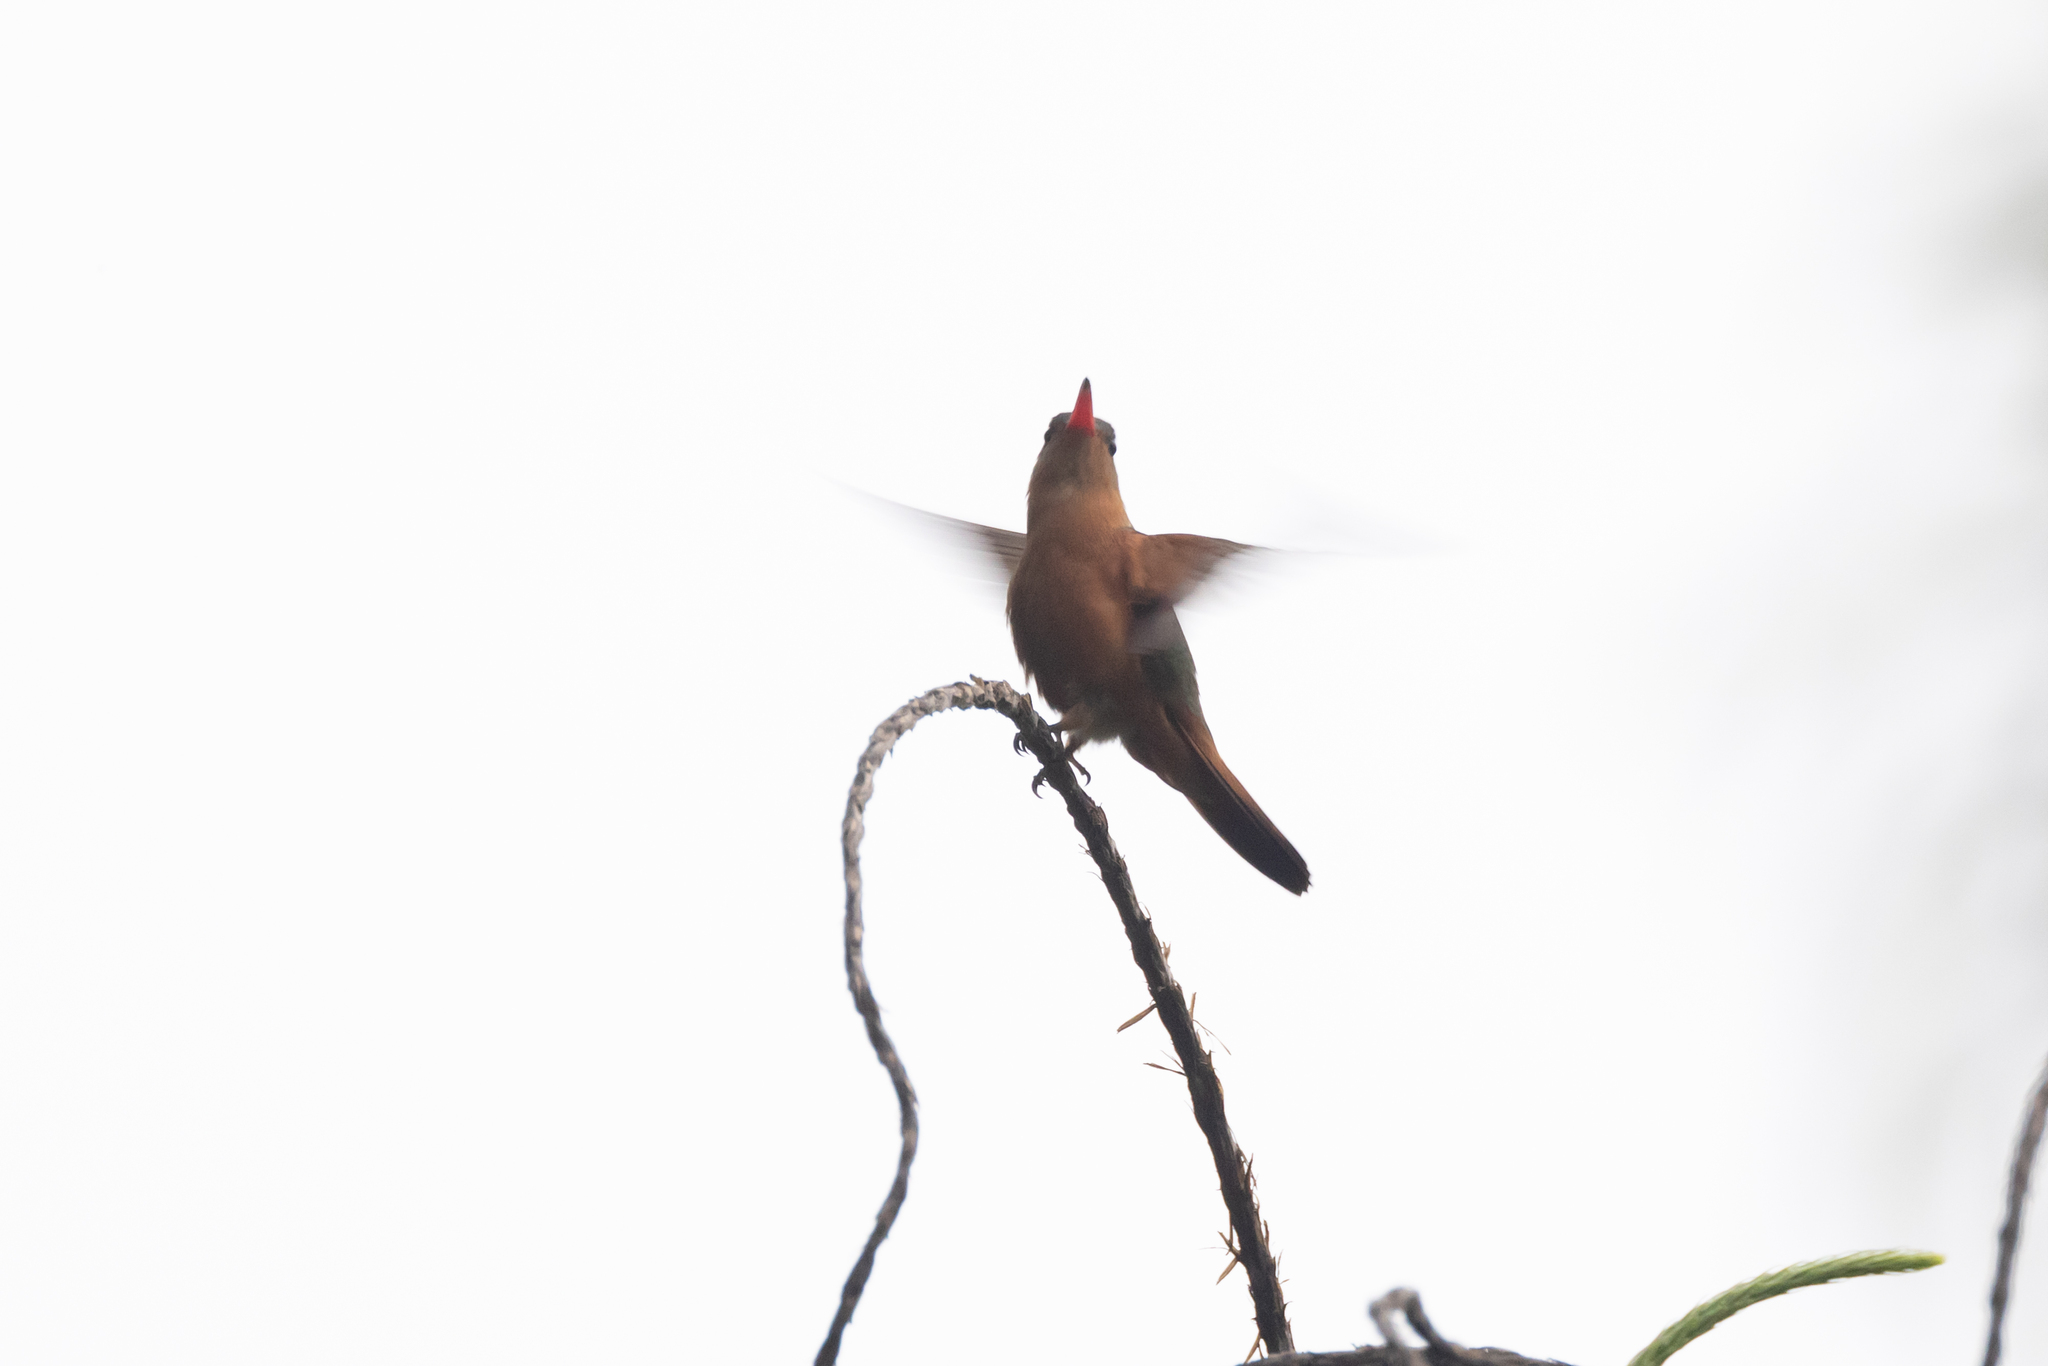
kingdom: Animalia
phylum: Chordata
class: Aves
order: Apodiformes
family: Trochilidae
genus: Amazilia
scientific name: Amazilia rutila
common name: Cinnamon hummingbird
